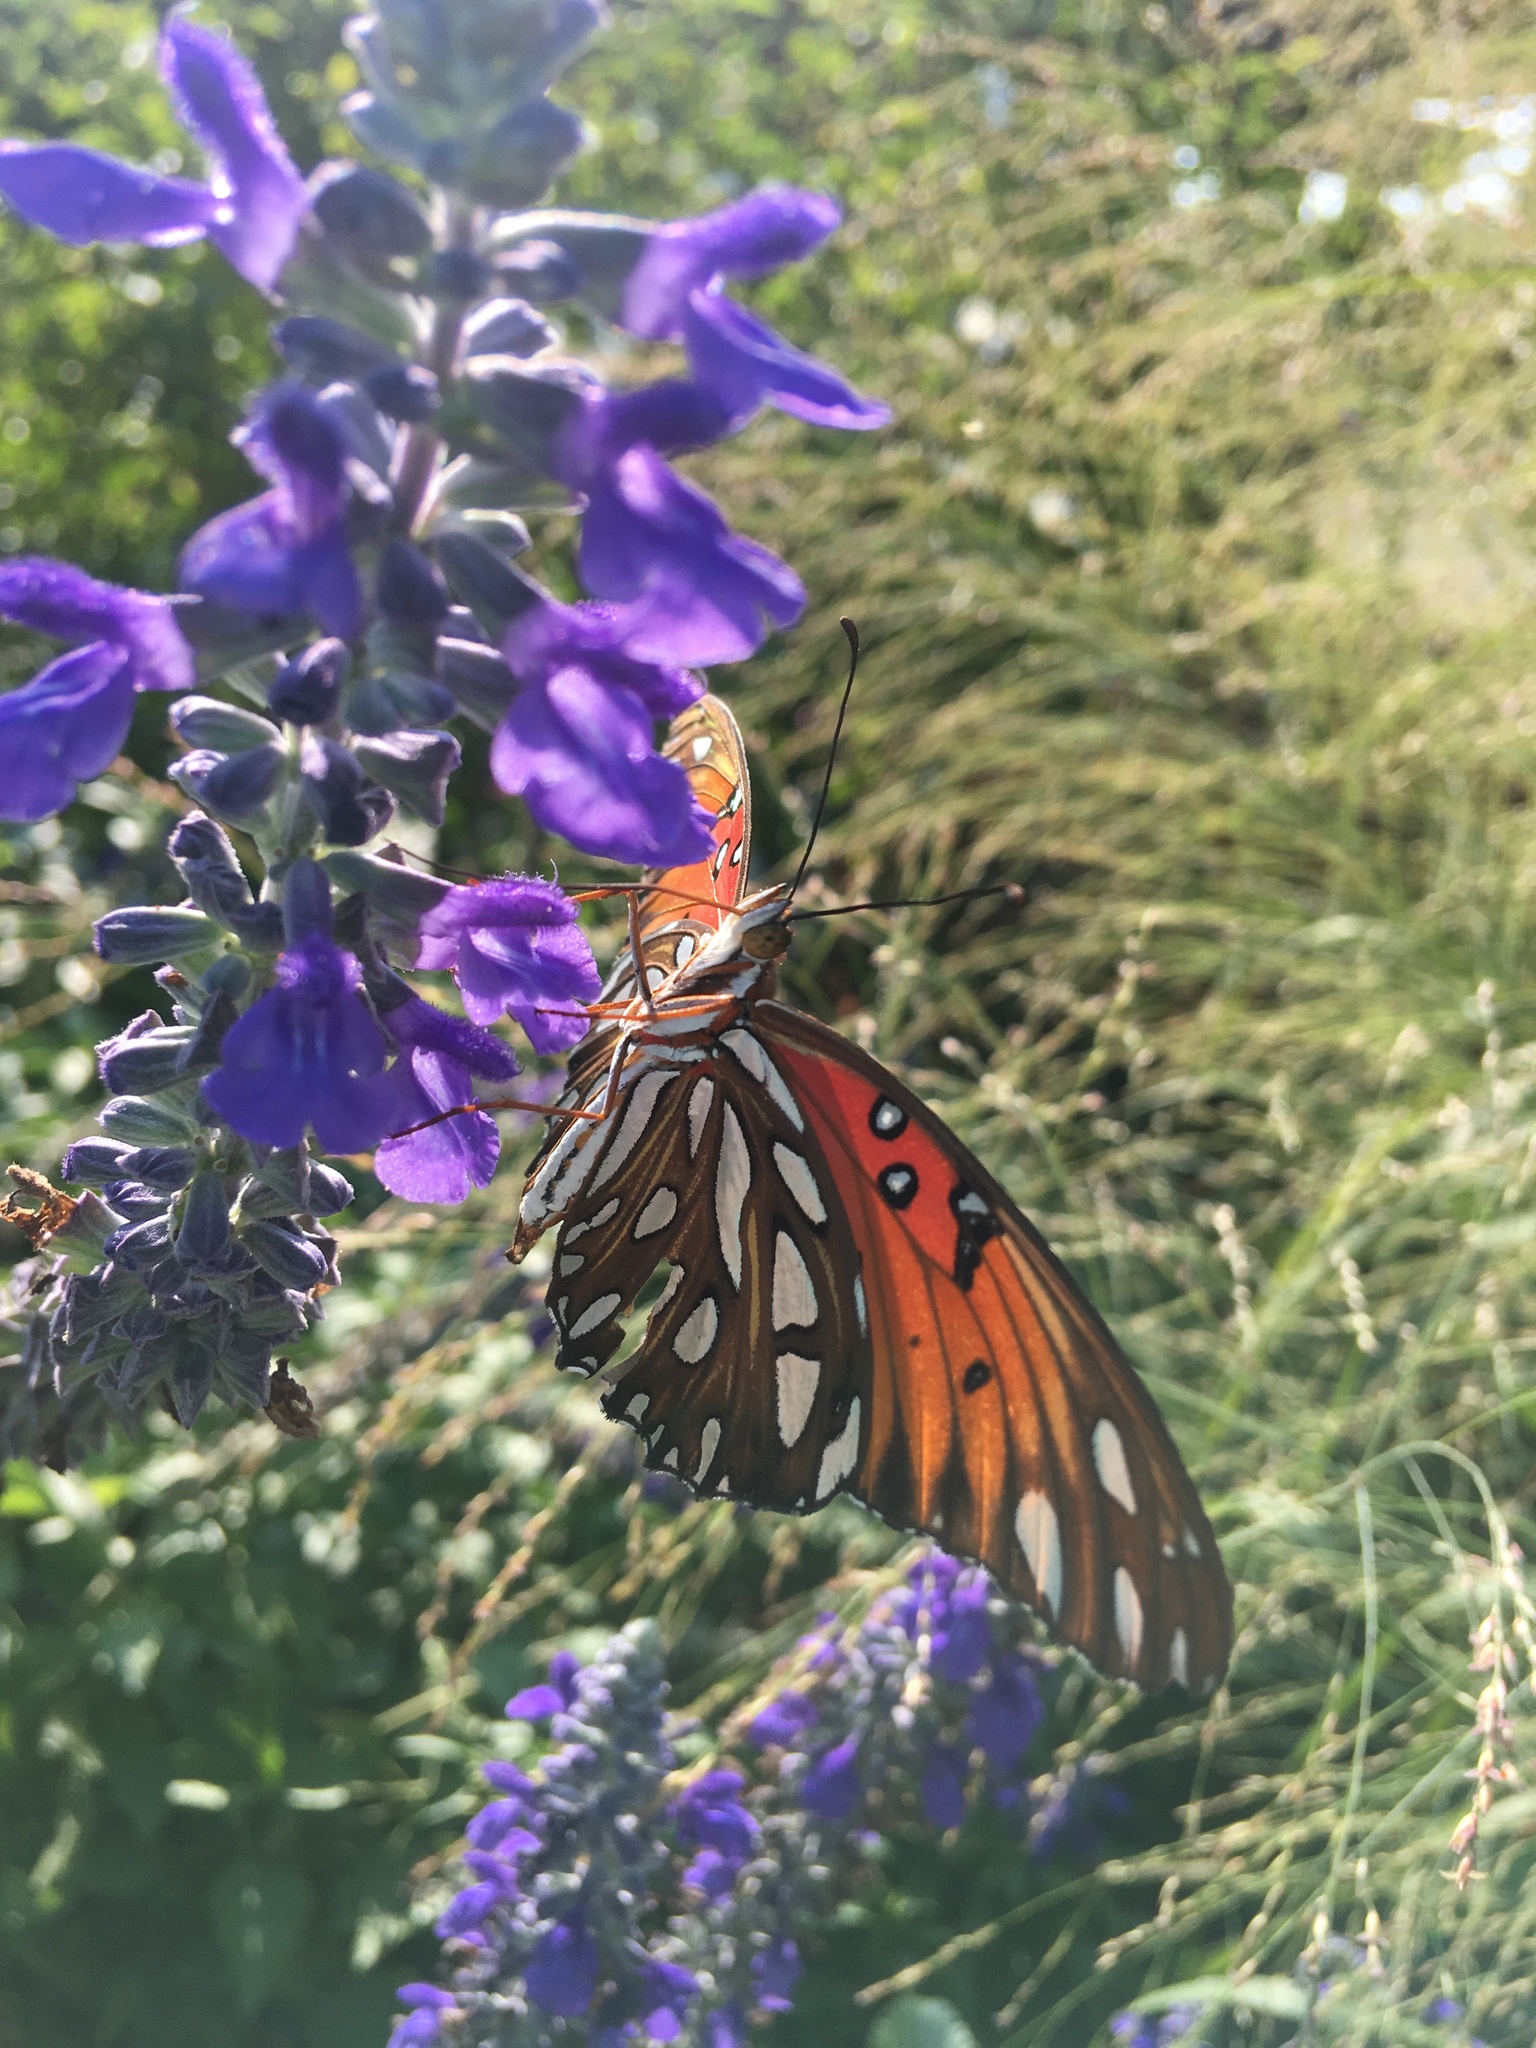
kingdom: Animalia
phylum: Arthropoda
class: Insecta
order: Lepidoptera
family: Nymphalidae
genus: Dione
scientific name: Dione vanillae
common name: Gulf fritillary
